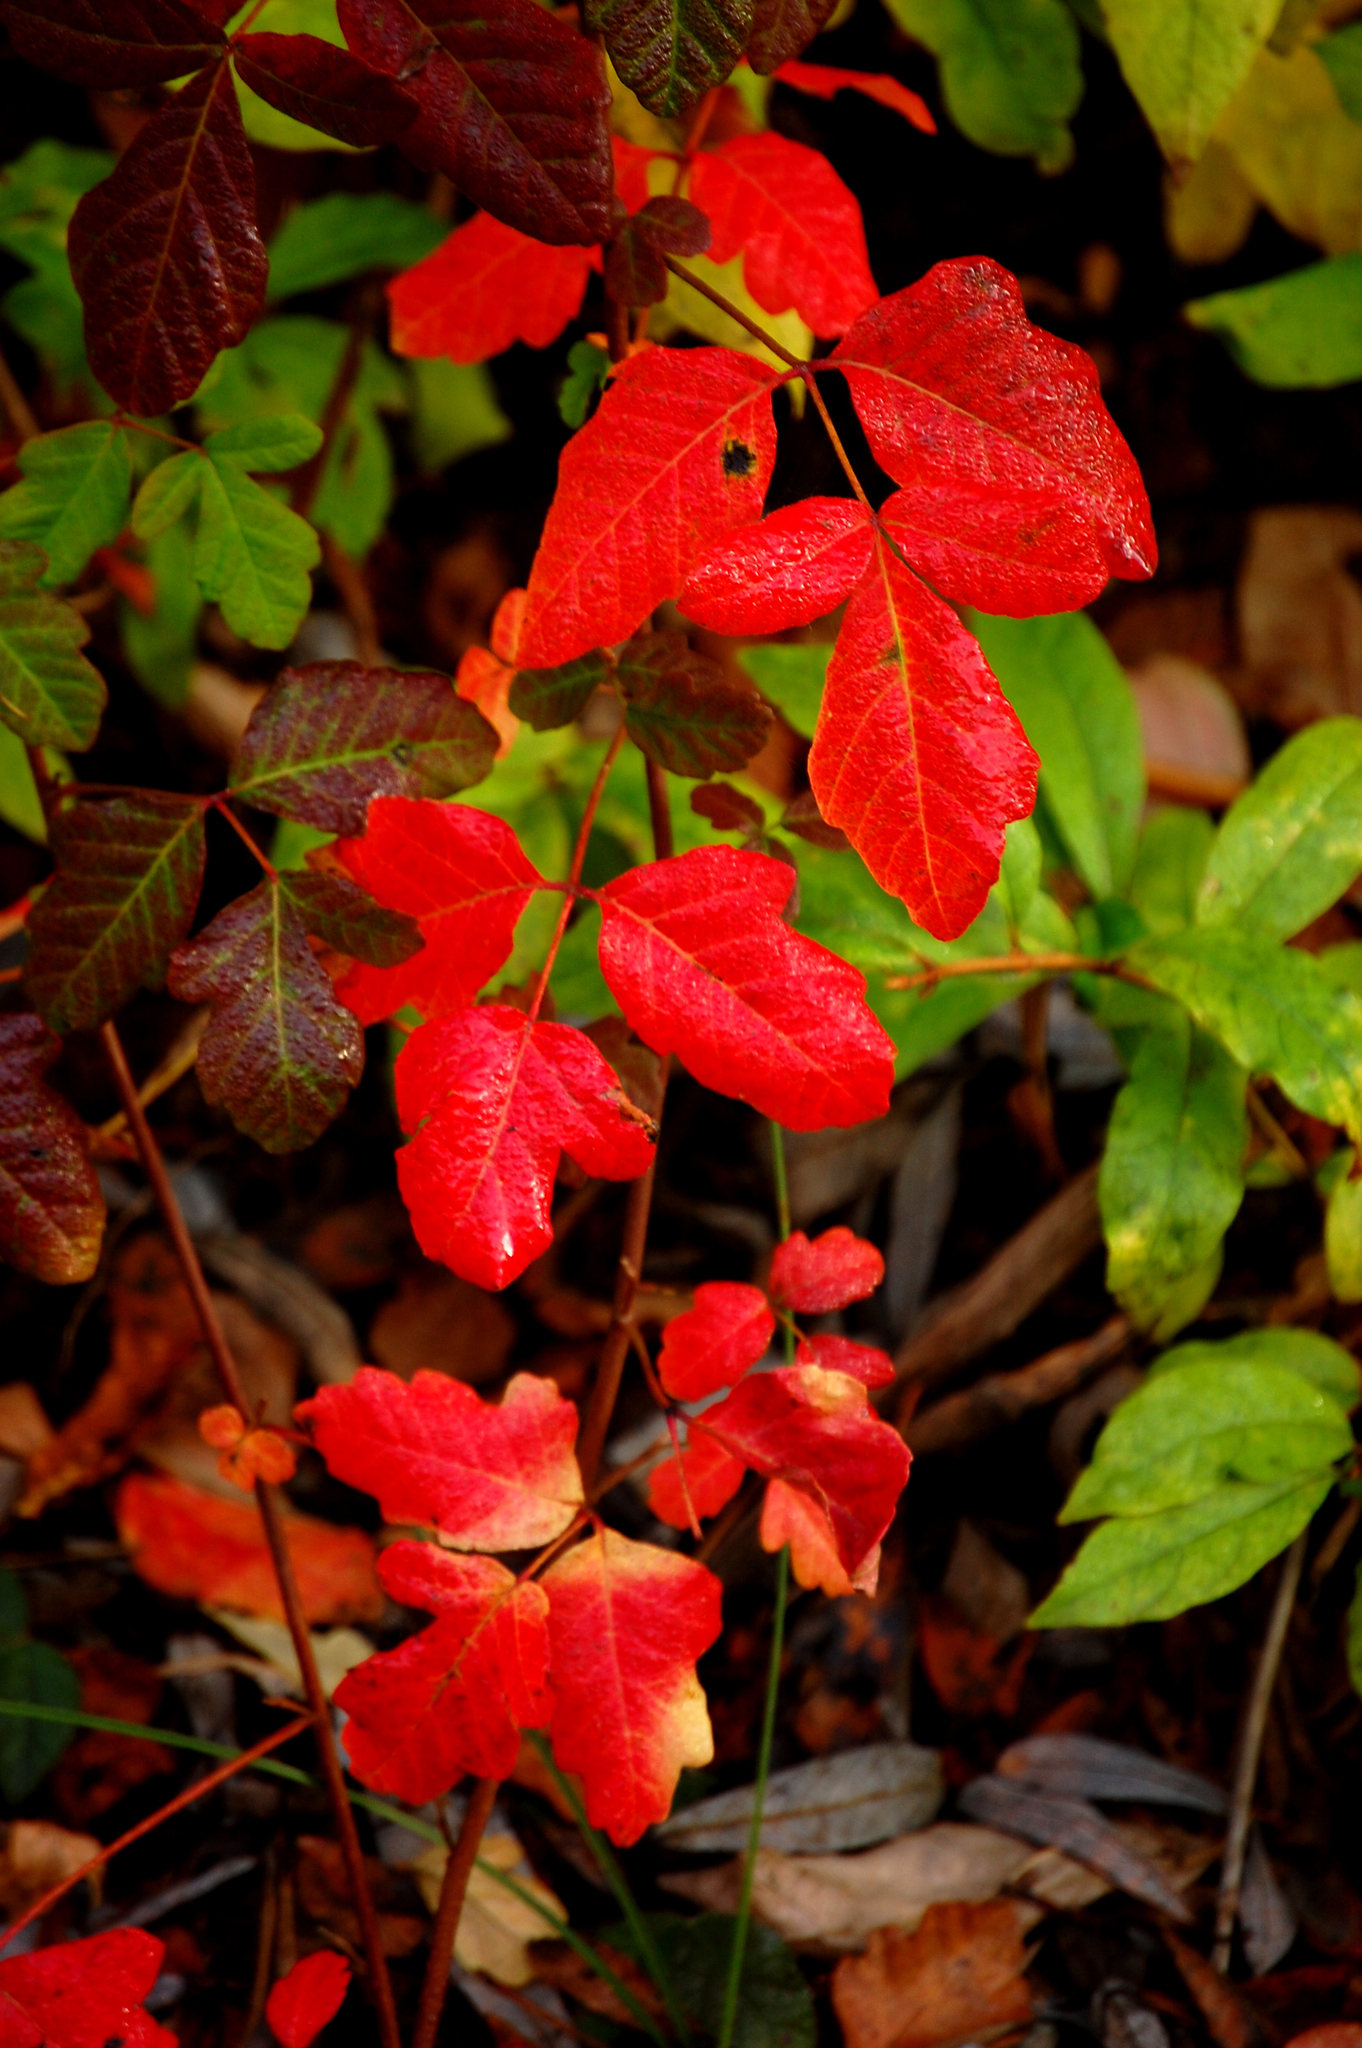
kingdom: Plantae
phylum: Tracheophyta
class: Magnoliopsida
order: Sapindales
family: Anacardiaceae
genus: Toxicodendron
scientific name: Toxicodendron diversilobum
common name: Pacific poison-oak
